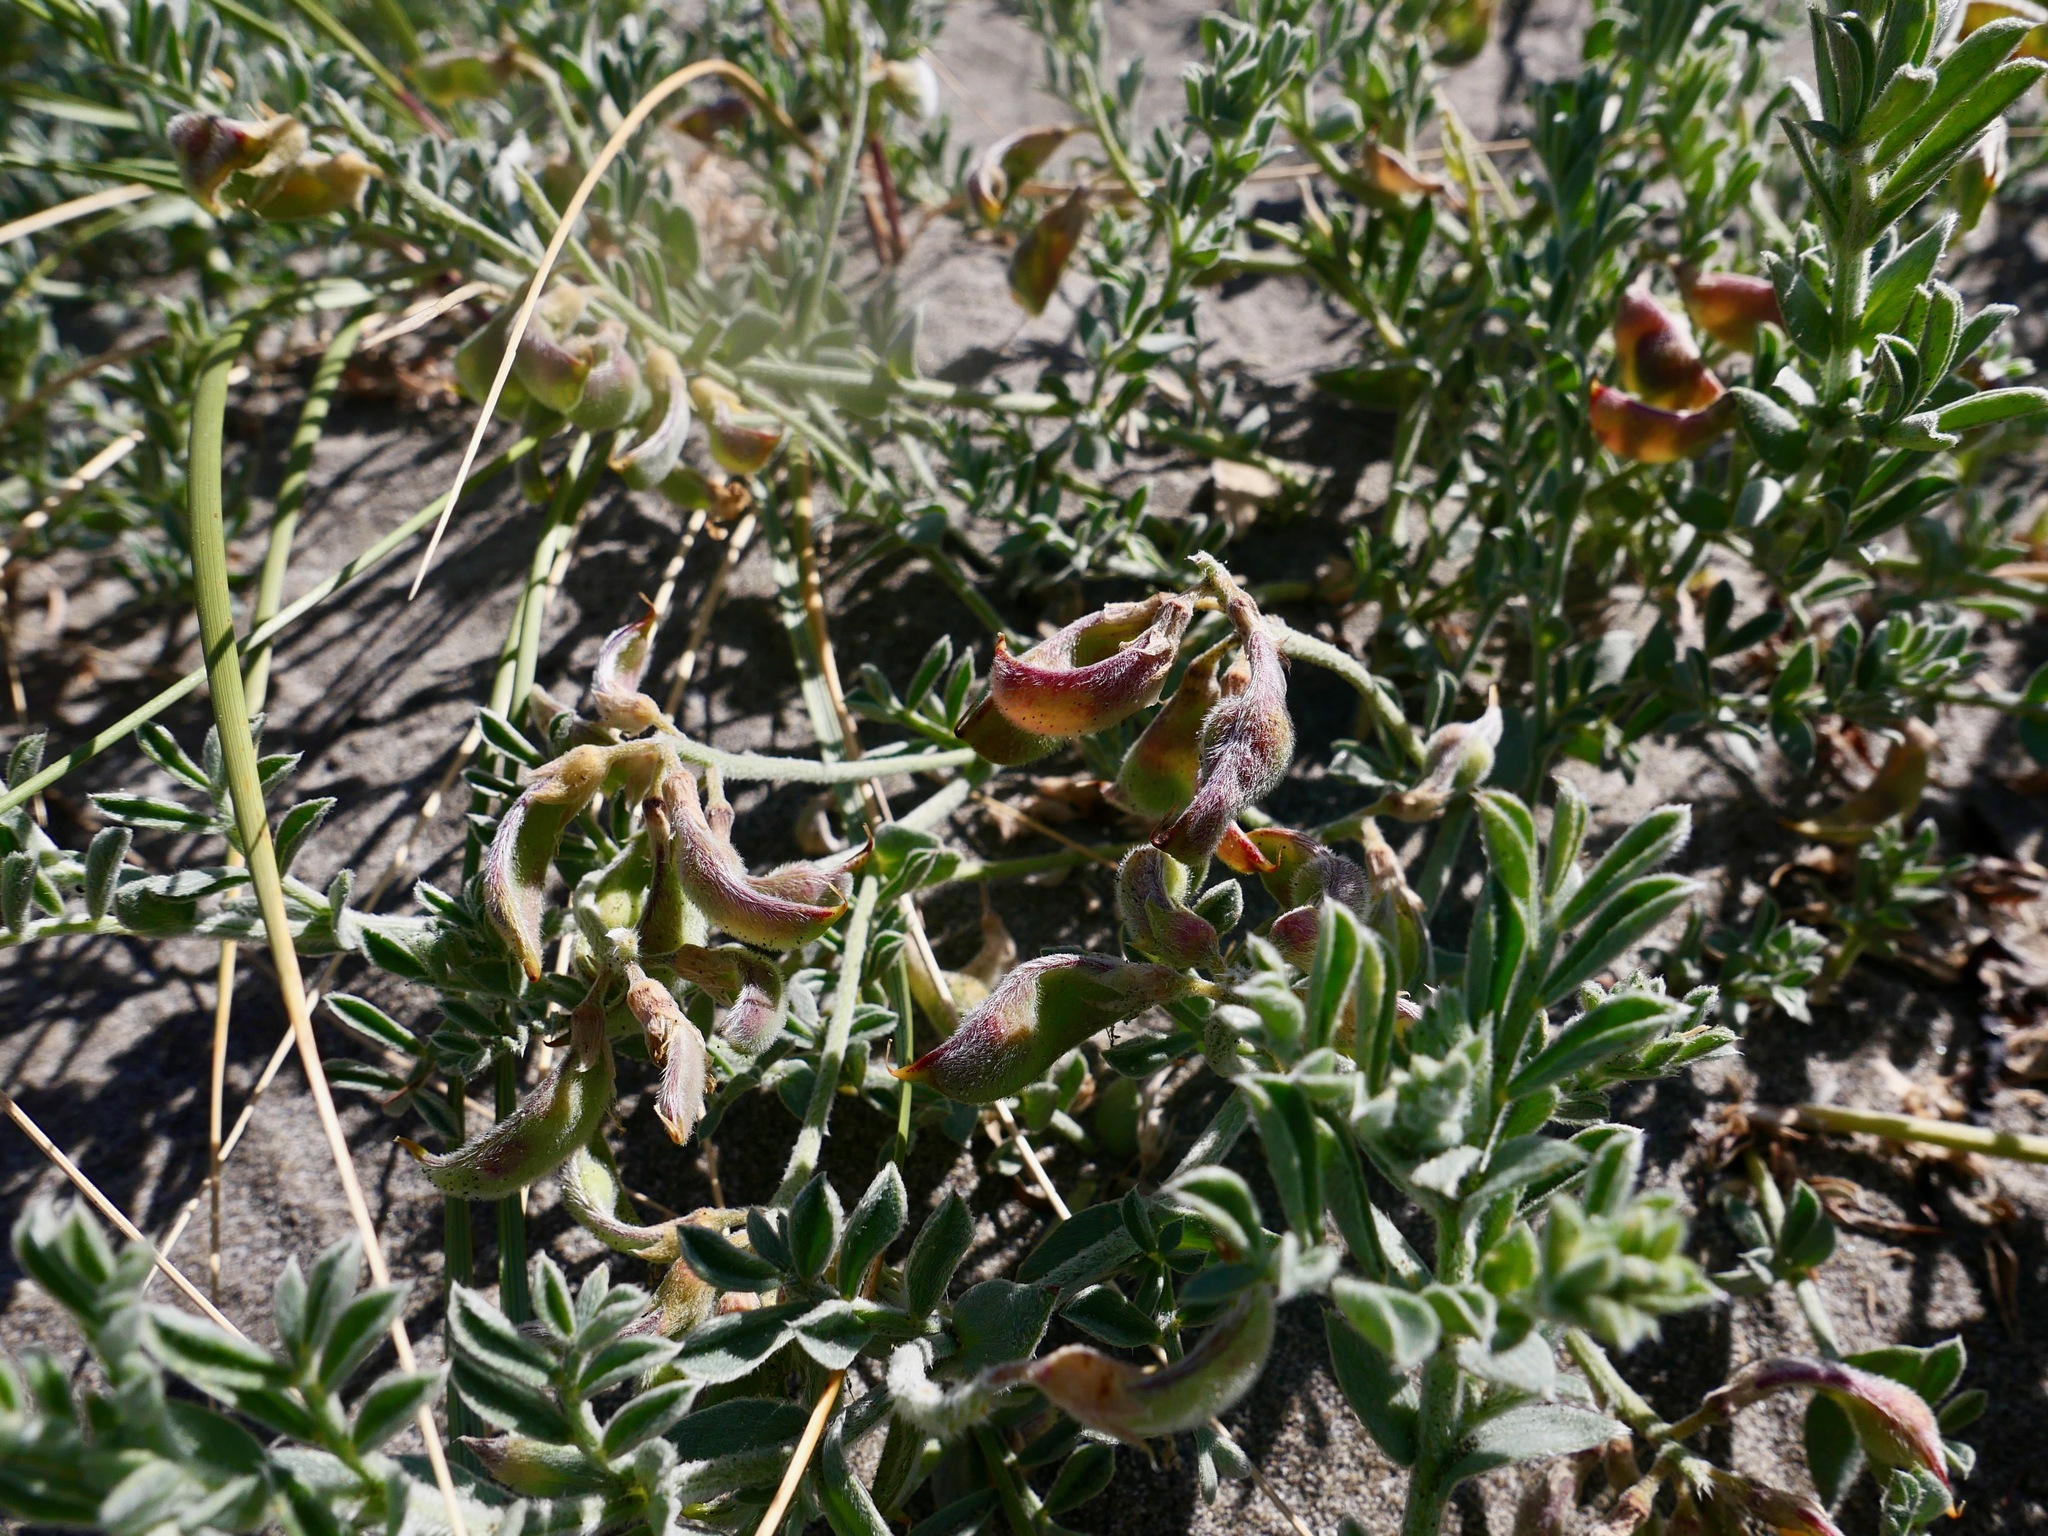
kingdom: Plantae
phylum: Tracheophyta
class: Magnoliopsida
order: Fabales
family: Fabaceae
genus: Lathyrus
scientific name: Lathyrus littoralis
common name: Dune sweet pea
